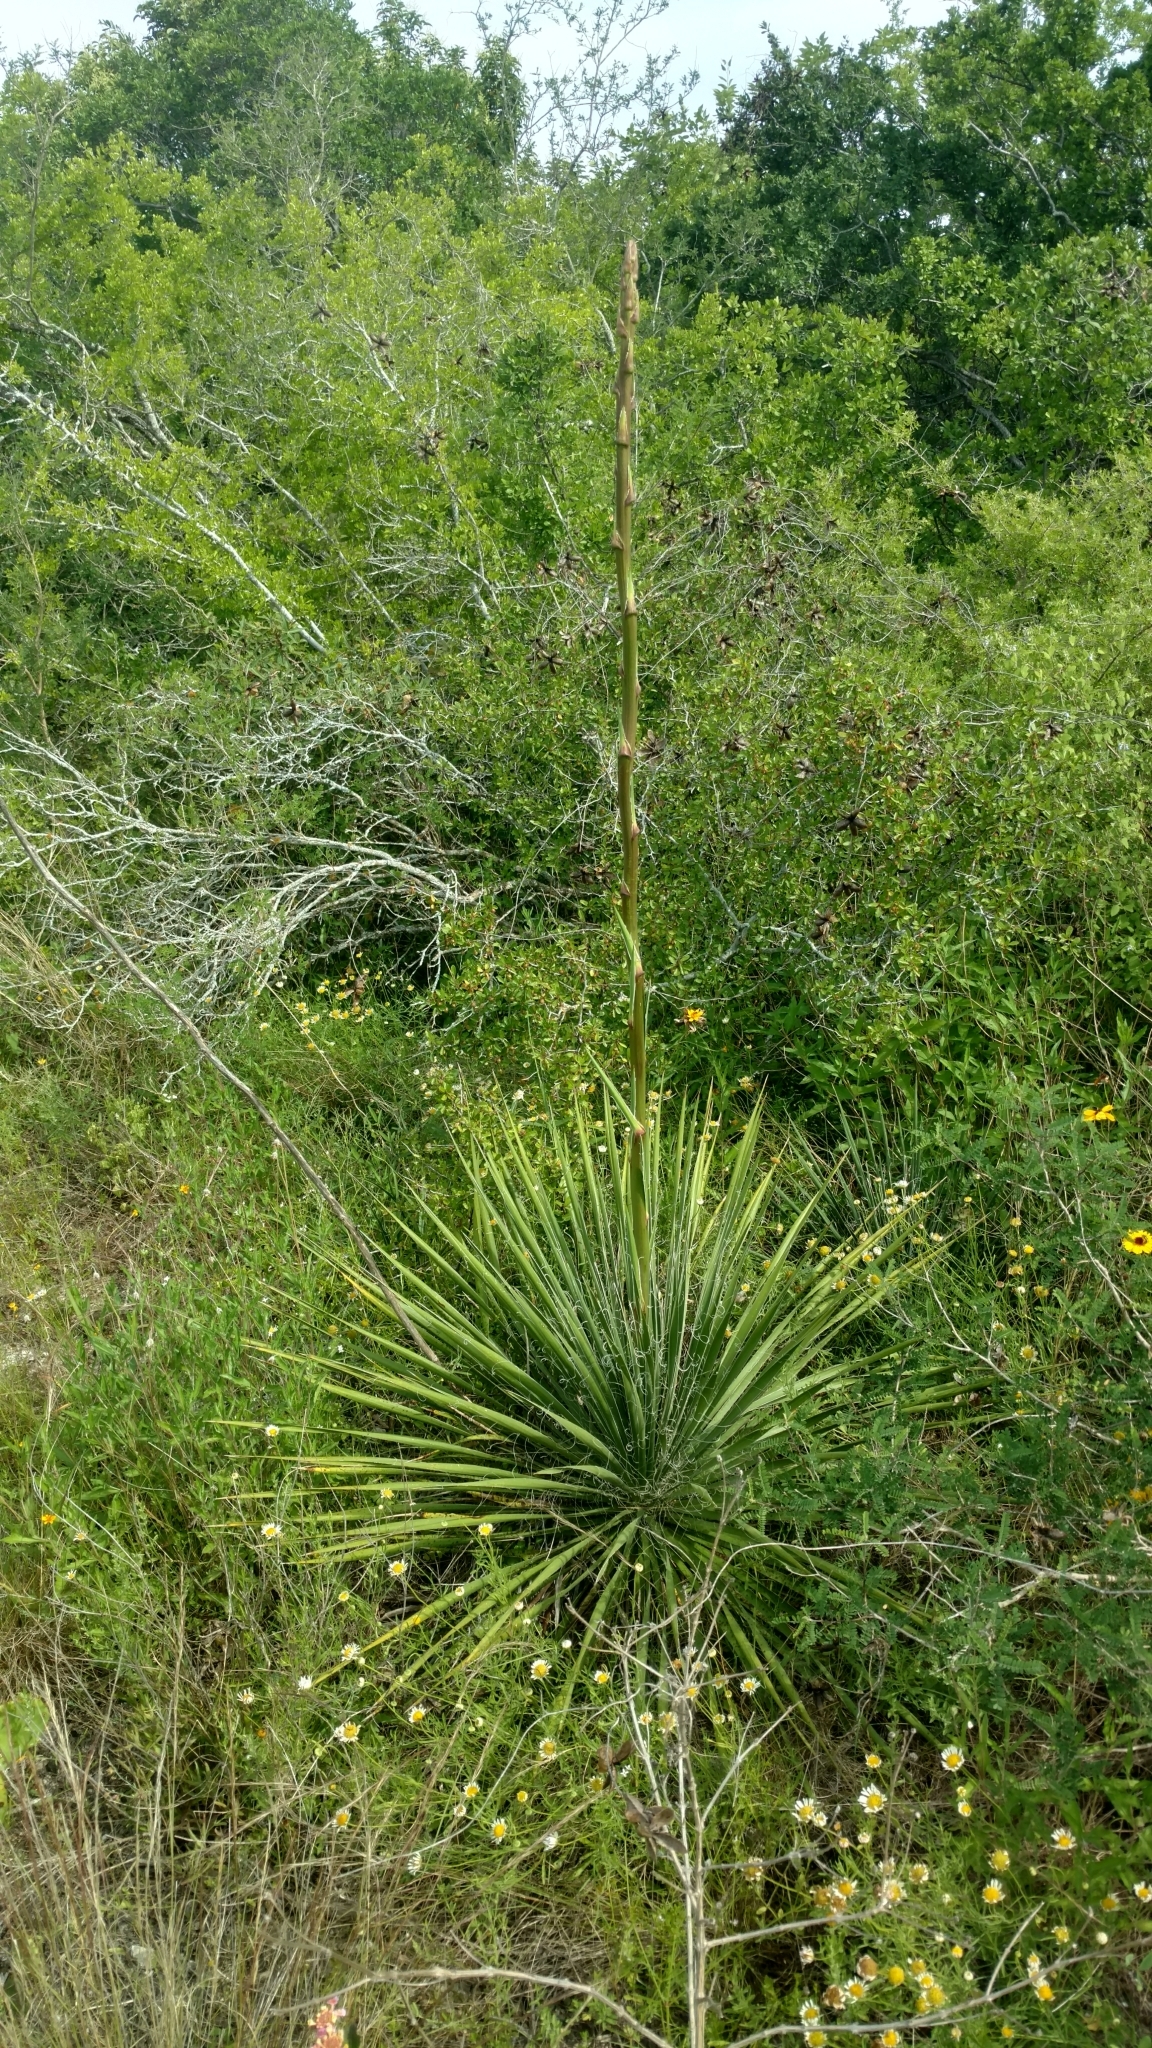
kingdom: Plantae
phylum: Tracheophyta
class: Liliopsida
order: Asparagales
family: Asparagaceae
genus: Yucca
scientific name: Yucca constricta
